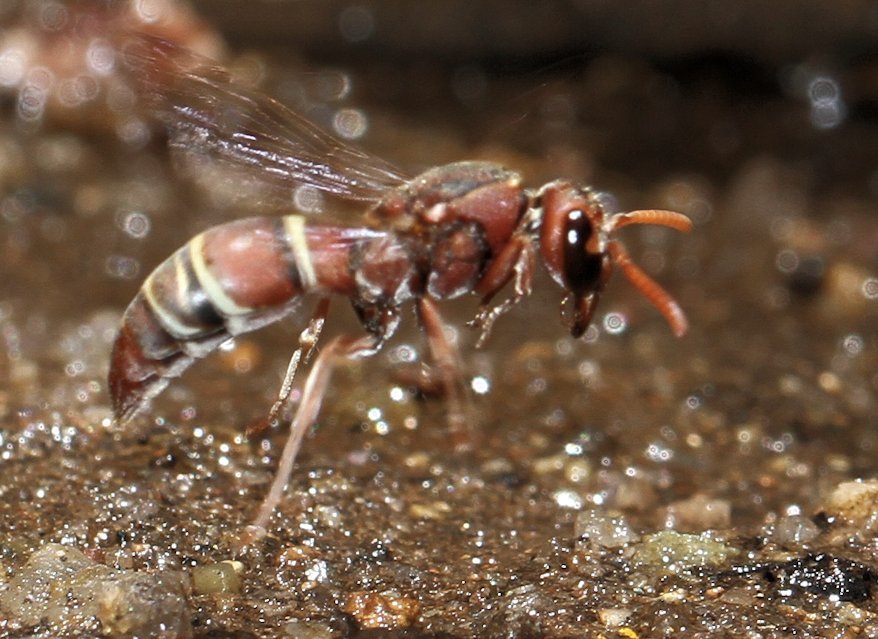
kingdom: Animalia
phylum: Arthropoda
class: Insecta
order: Hymenoptera
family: Eumenidae
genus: Antodynerus
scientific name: Antodynerus
